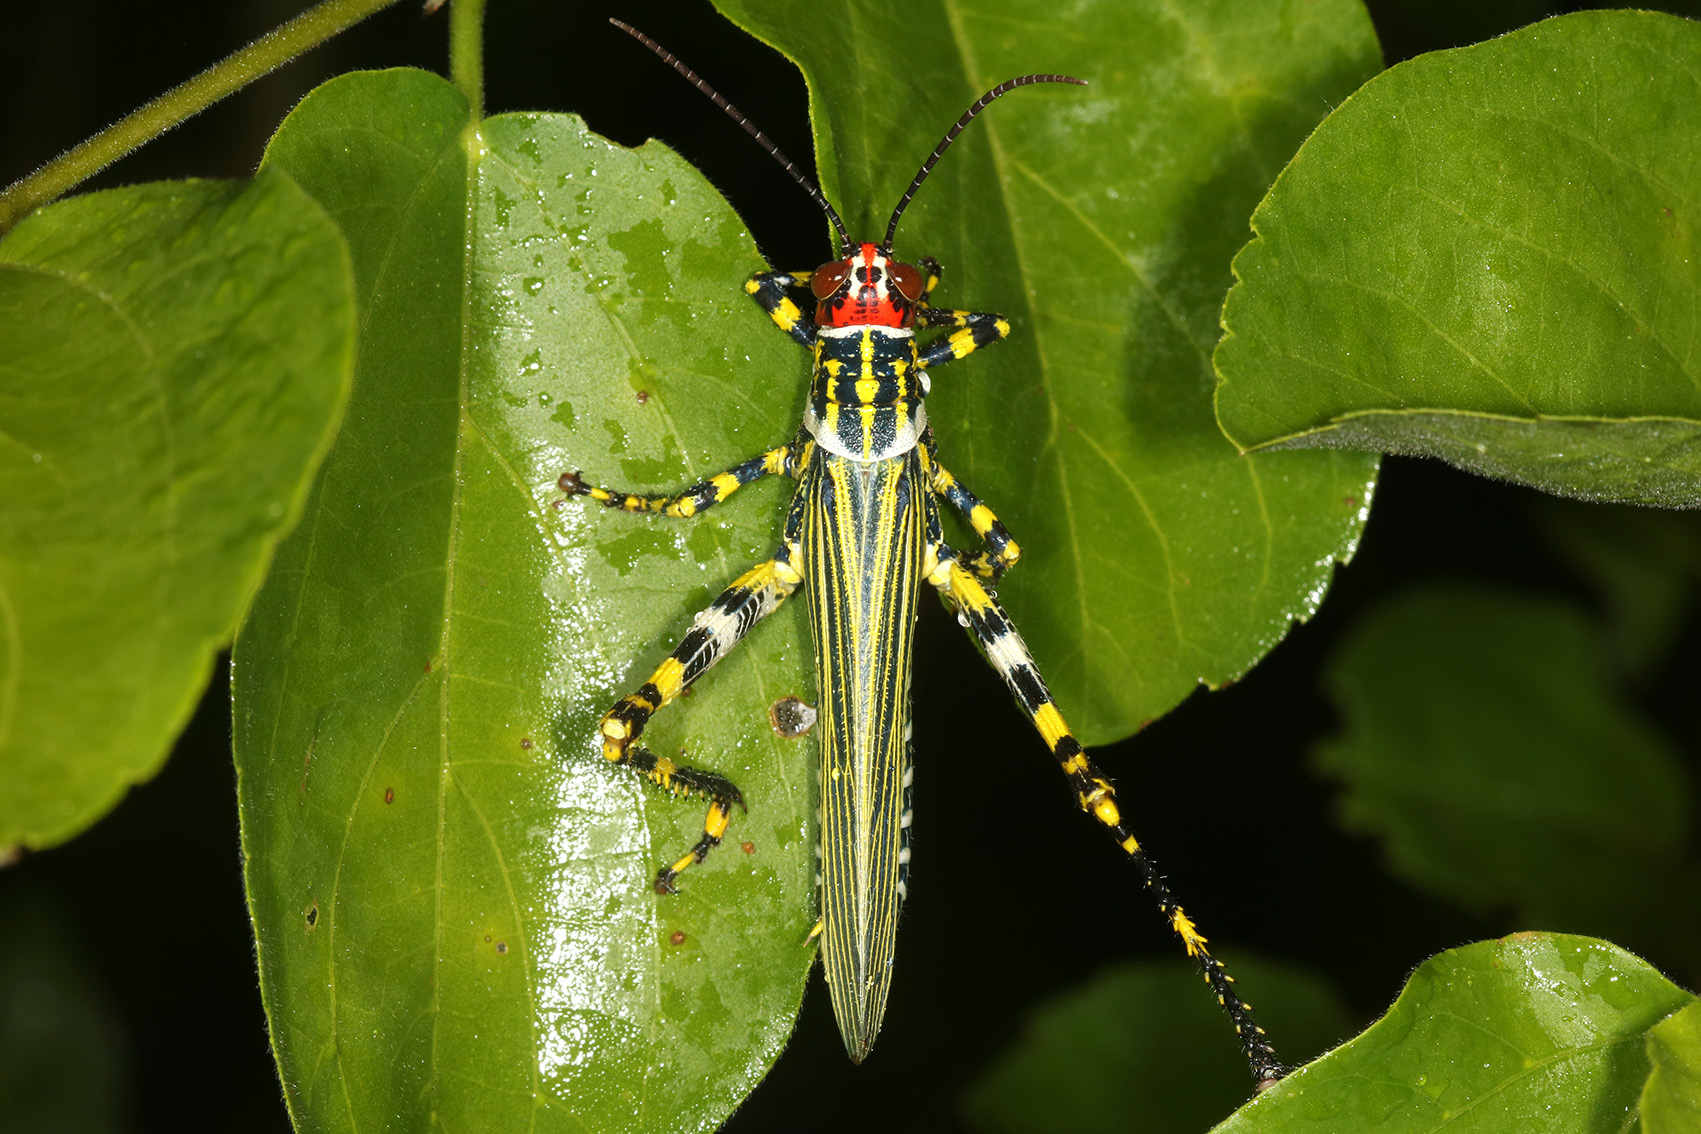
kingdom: Animalia
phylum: Arthropoda
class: Insecta
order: Orthoptera
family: Romaleidae
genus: Zoniopoda
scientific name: Zoniopoda omnicolor
